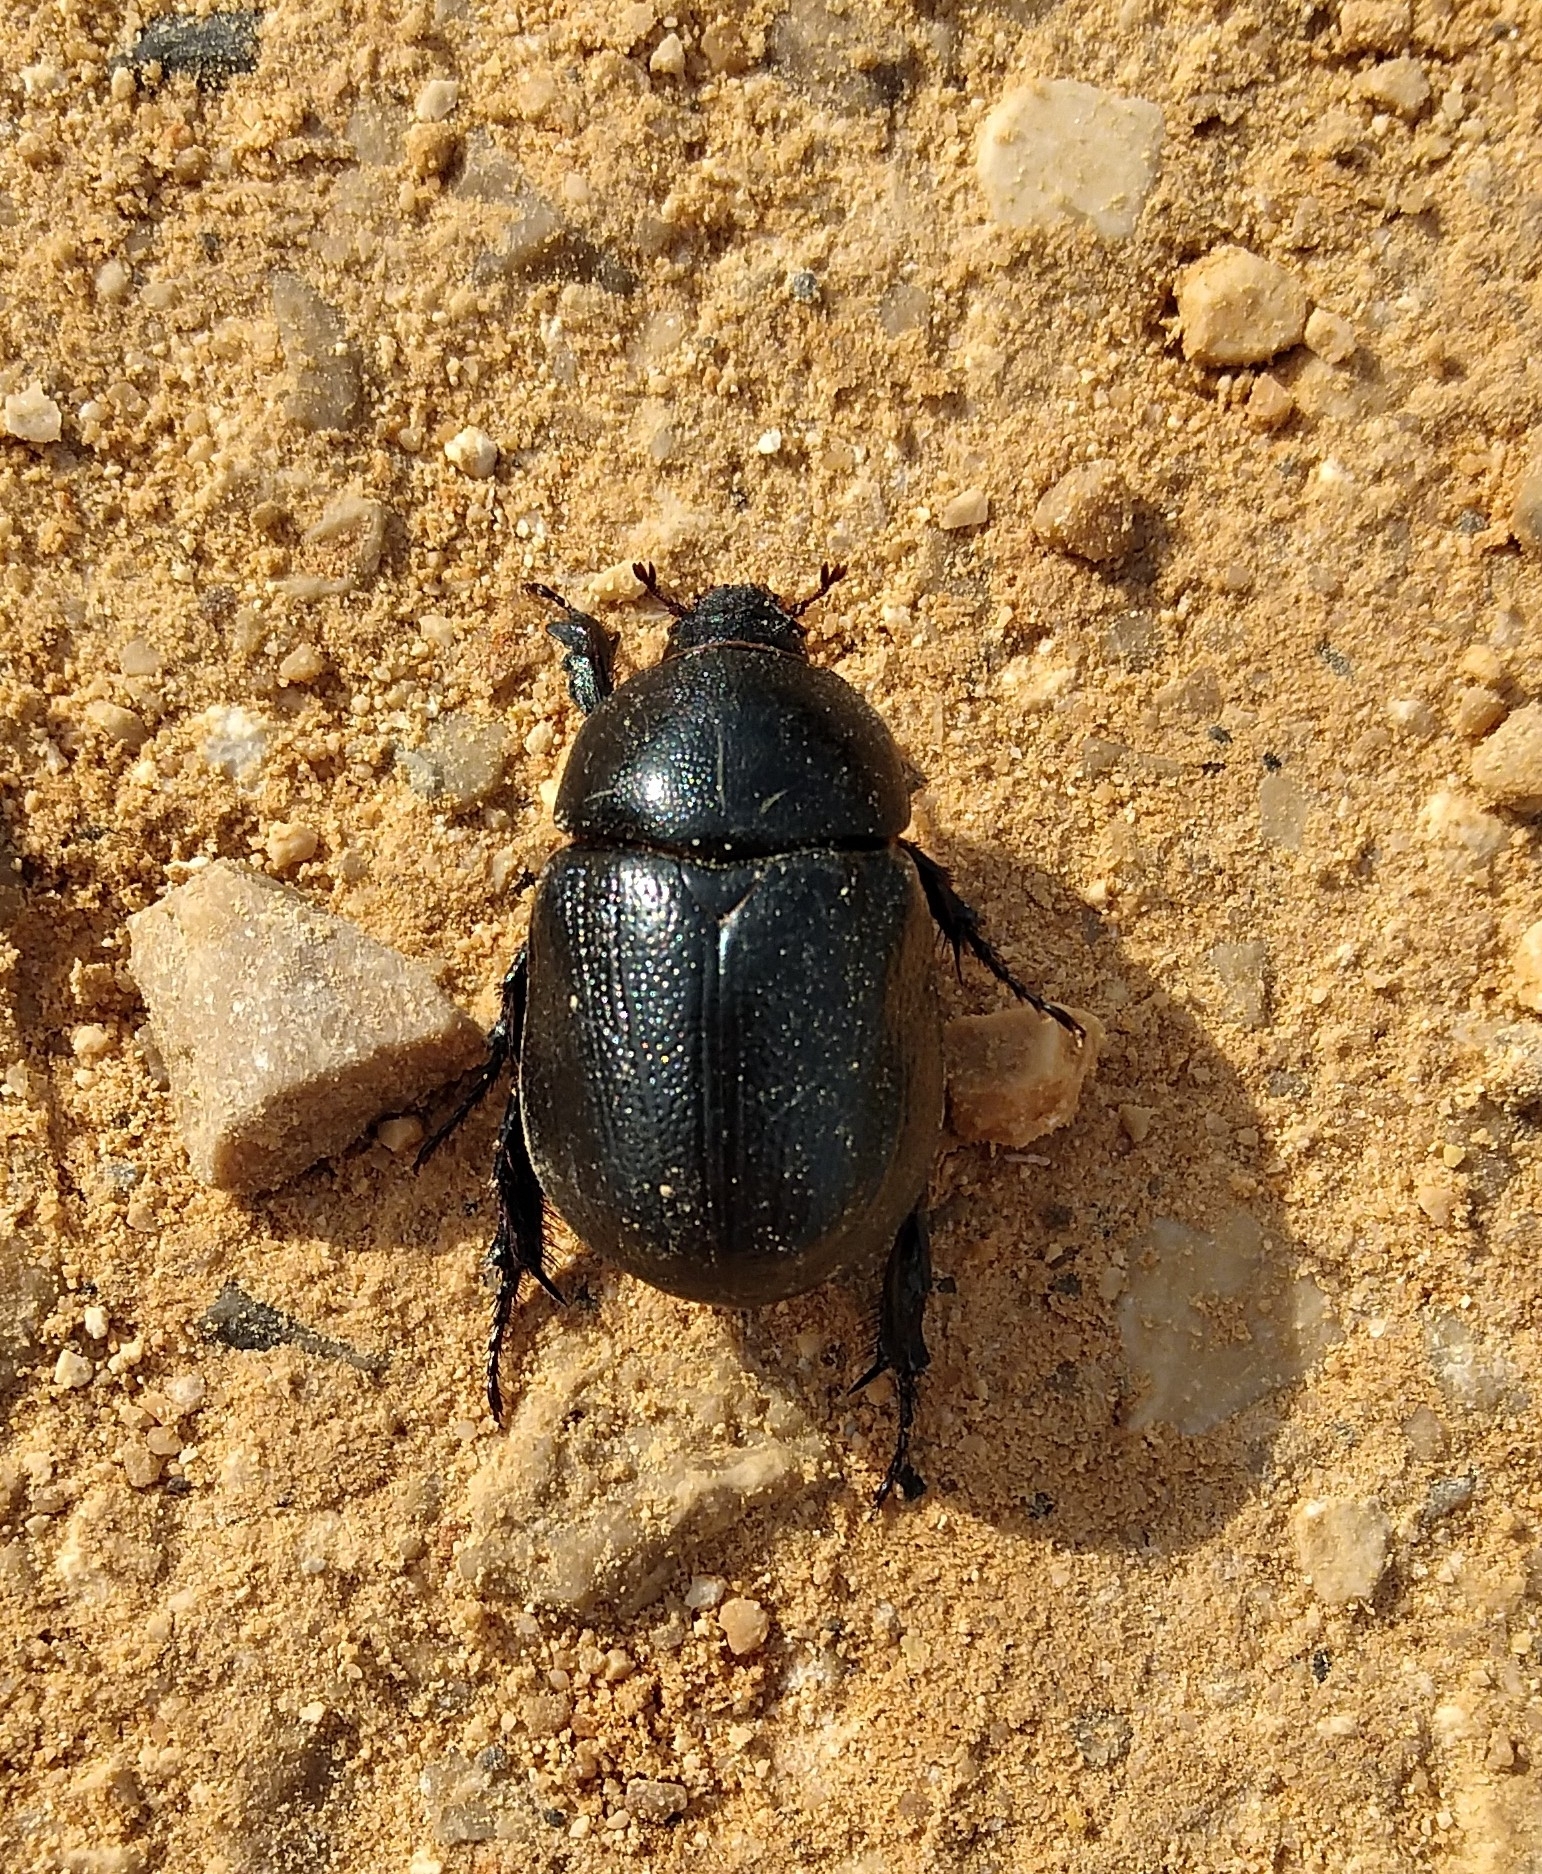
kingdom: Animalia
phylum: Arthropoda
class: Insecta
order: Coleoptera
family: Scarabaeidae
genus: Pentodon
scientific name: Pentodon bidens
